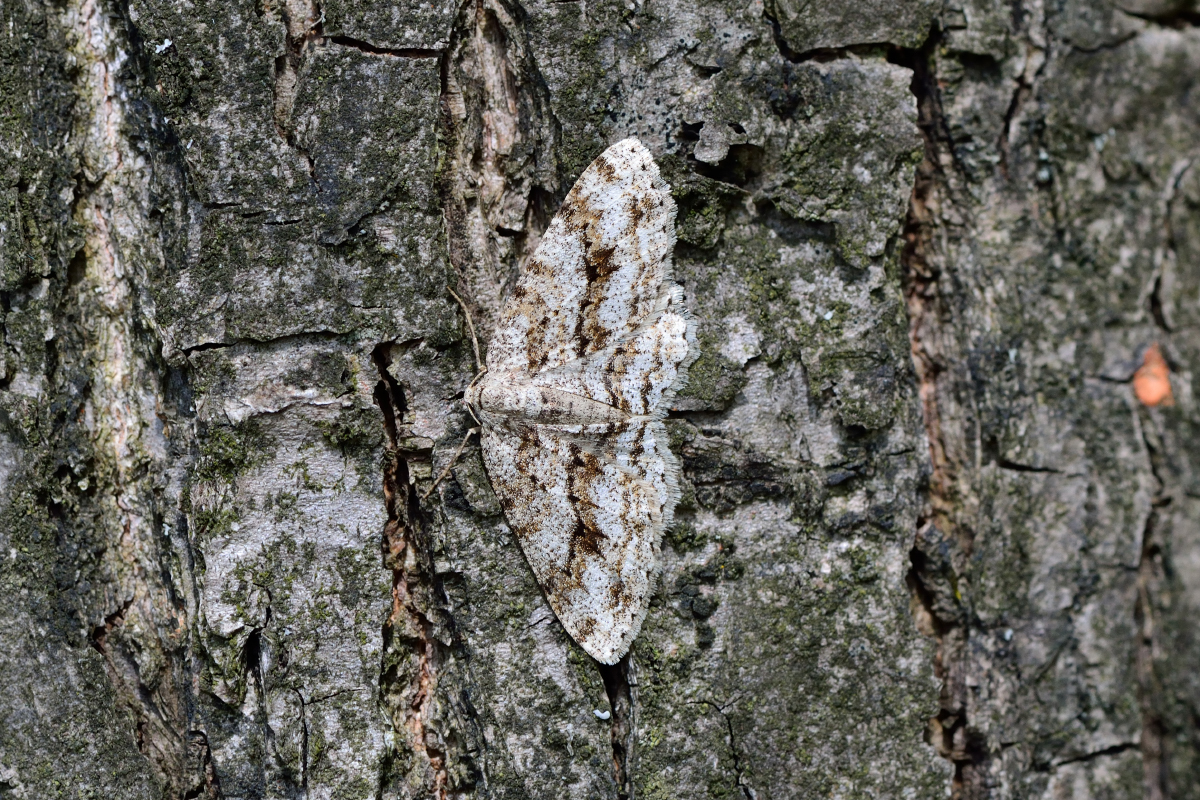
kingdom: Animalia
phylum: Arthropoda
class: Insecta
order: Lepidoptera
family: Geometridae
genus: Ectropis
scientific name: Ectropis crepuscularia
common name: Engrailed
